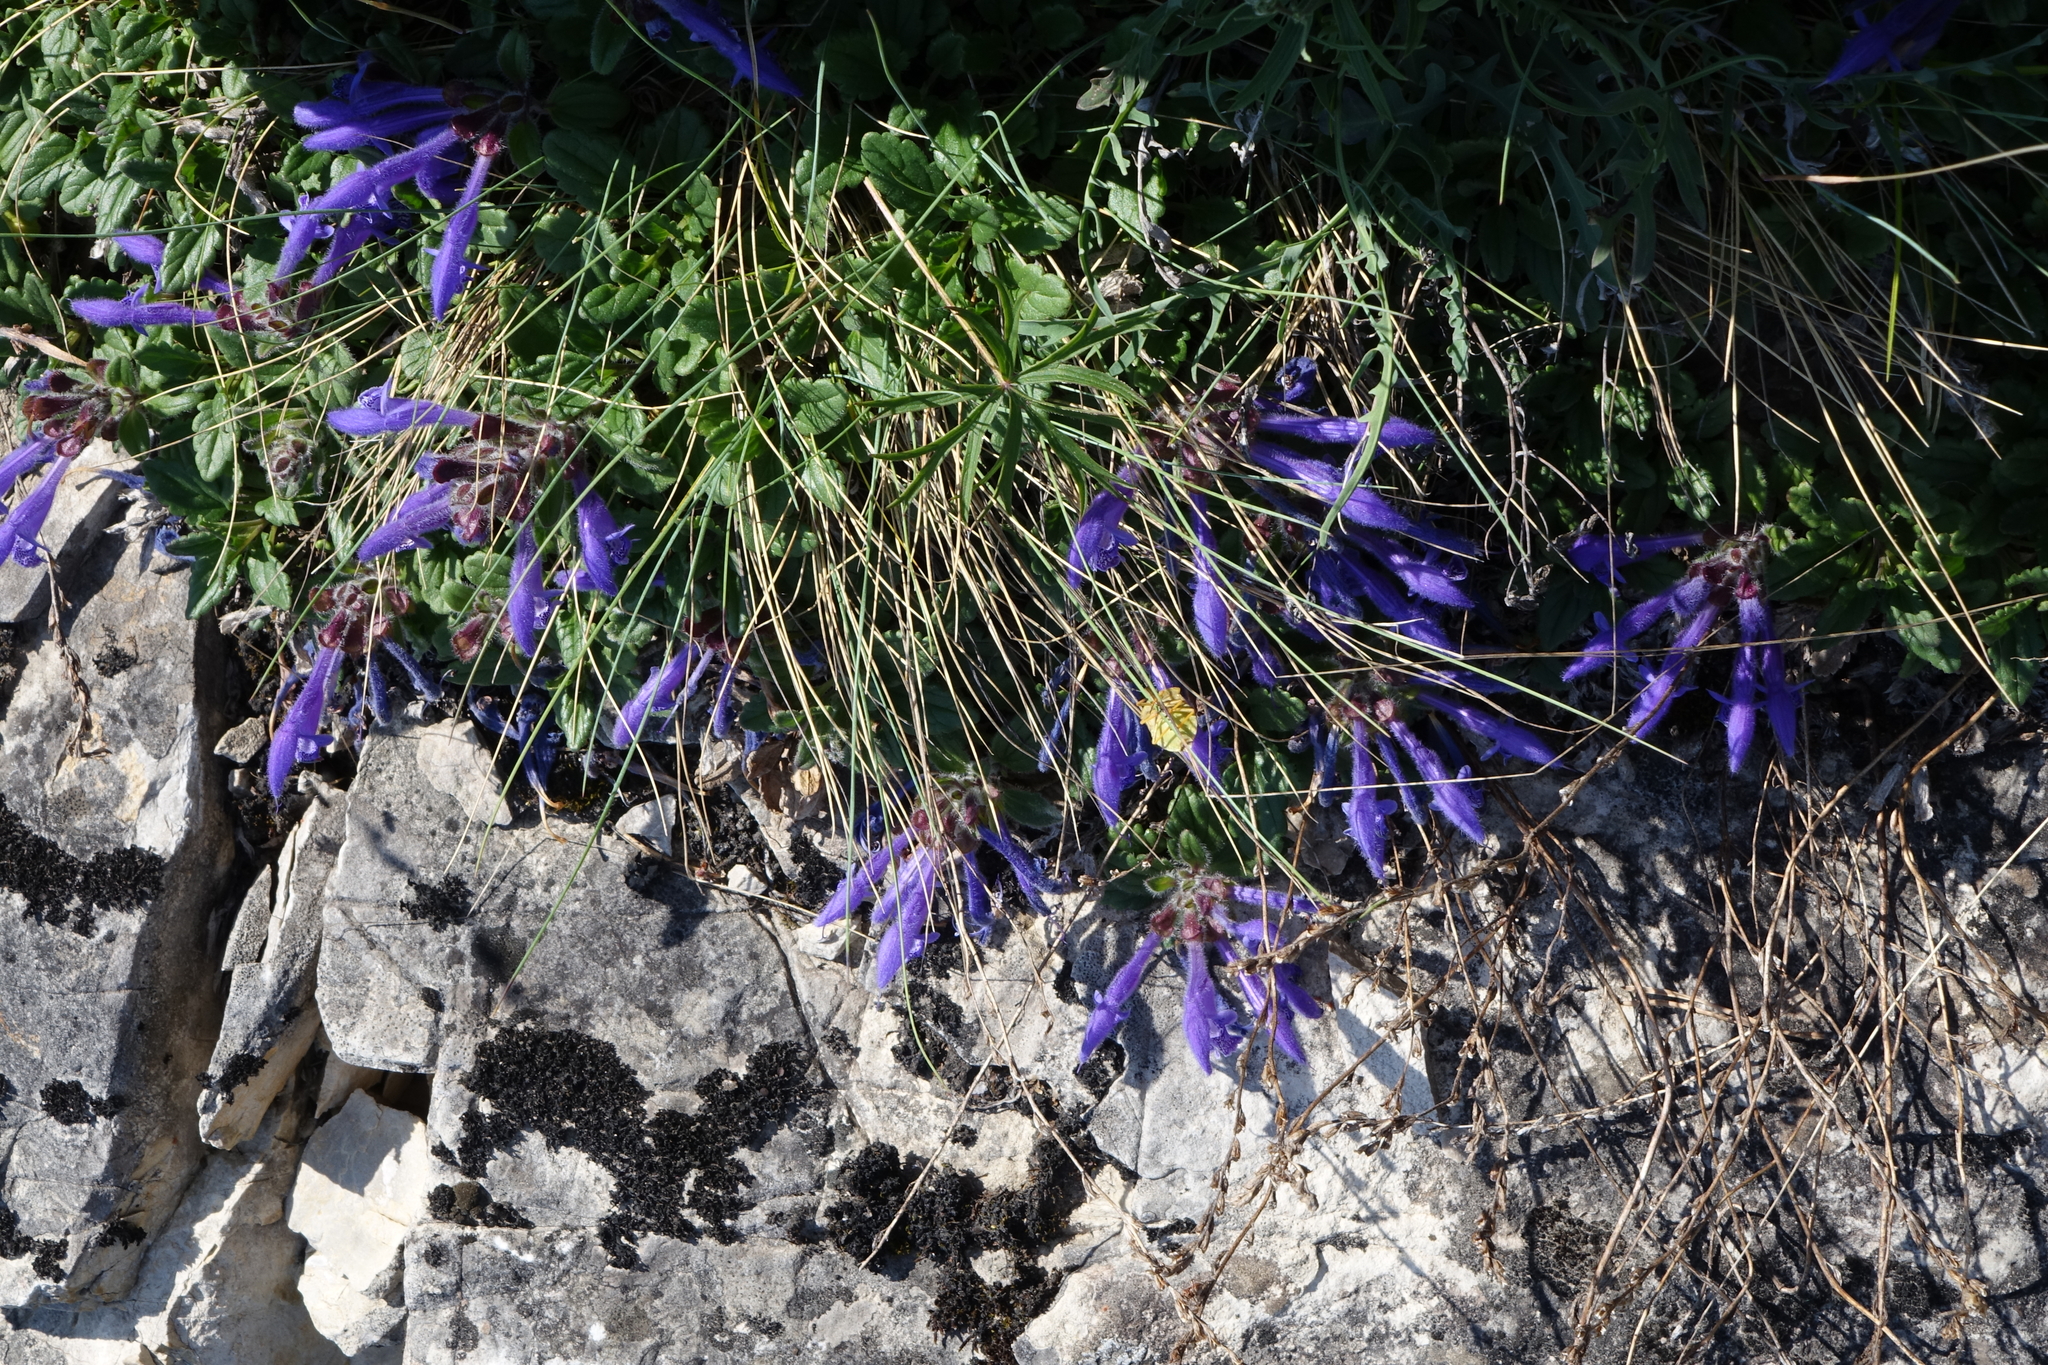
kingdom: Plantae
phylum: Tracheophyta
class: Magnoliopsida
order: Lamiales
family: Lamiaceae
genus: Dracocephalum
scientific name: Dracocephalum stellerianum
